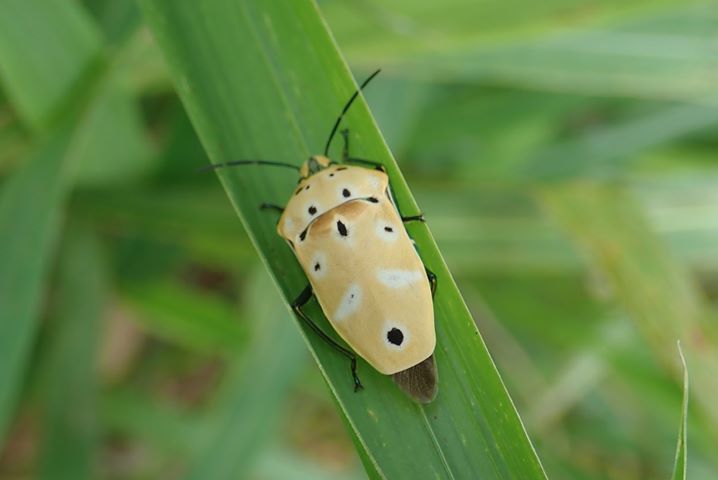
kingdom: Animalia
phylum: Arthropoda
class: Insecta
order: Hemiptera
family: Scutelleridae
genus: Cantao
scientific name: Cantao ocellatus
